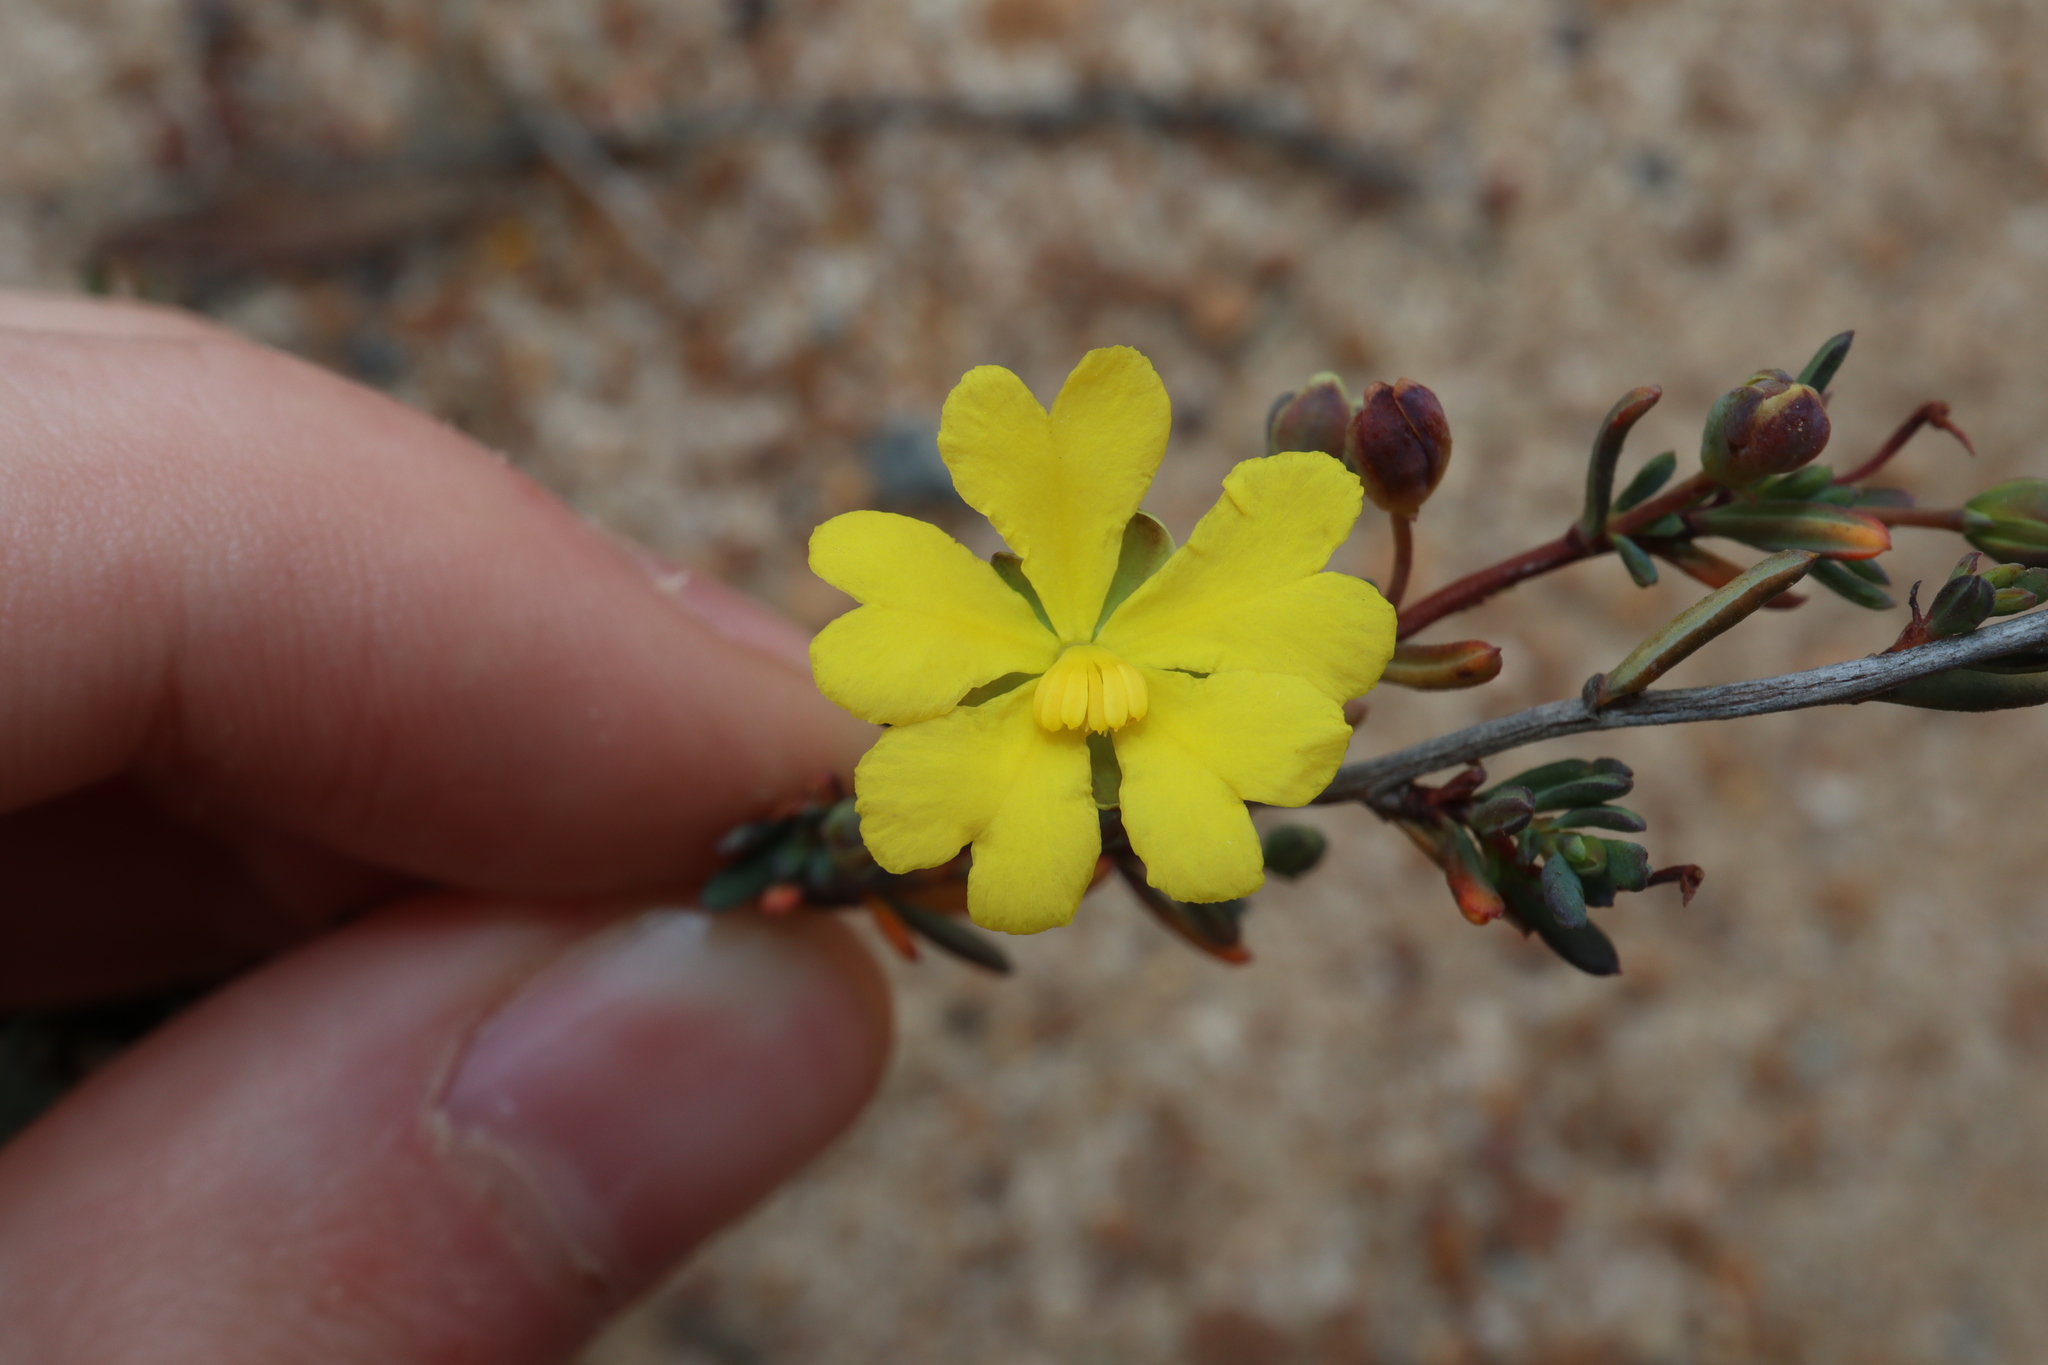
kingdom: Plantae
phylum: Tracheophyta
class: Magnoliopsida
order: Dilleniales
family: Dilleniaceae
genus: Hibbertia
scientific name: Hibbertia gracilipes
